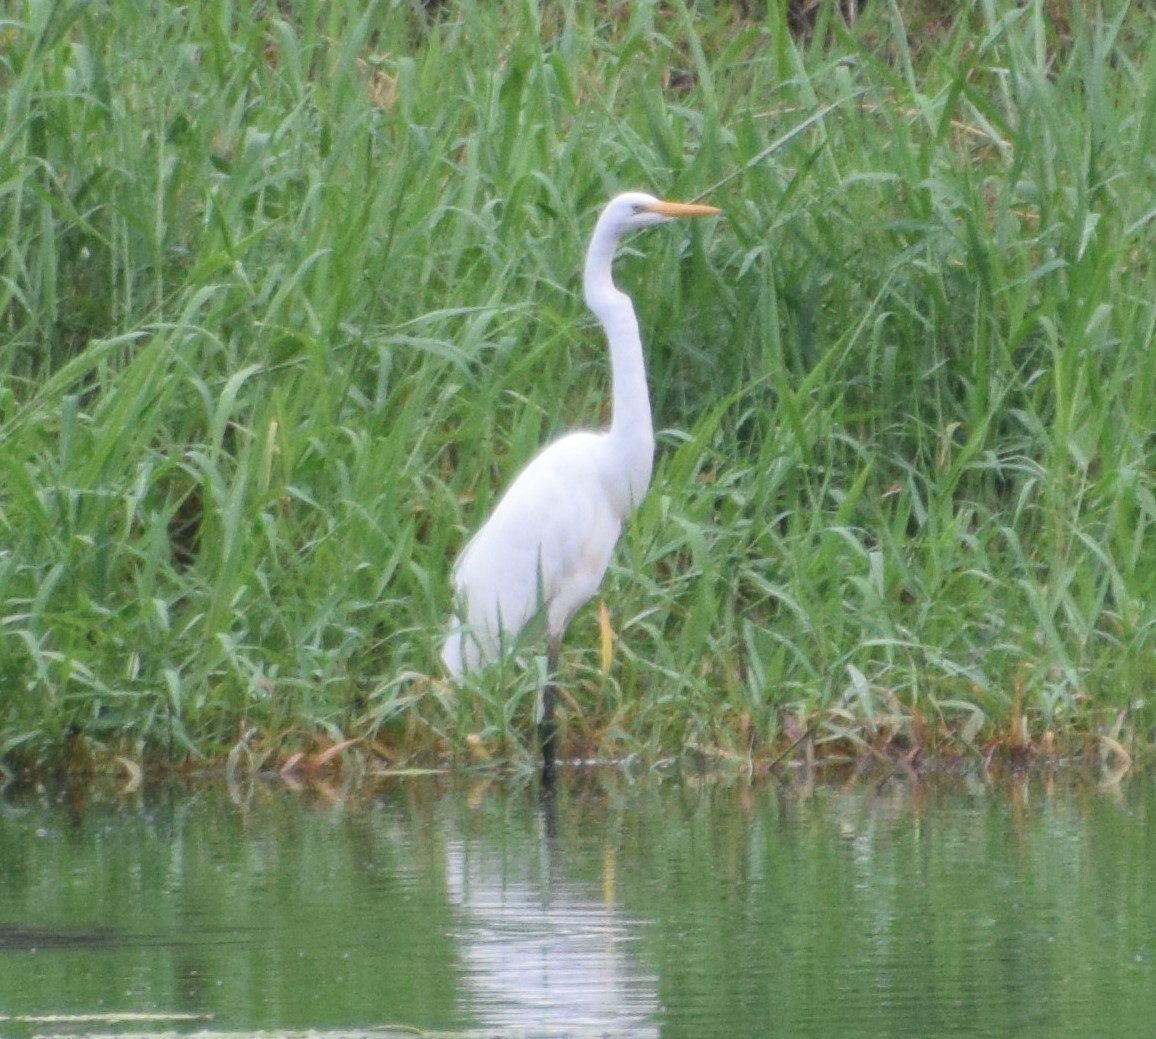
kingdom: Animalia
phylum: Chordata
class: Aves
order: Pelecaniformes
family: Ardeidae
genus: Ardea
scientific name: Ardea modesta
